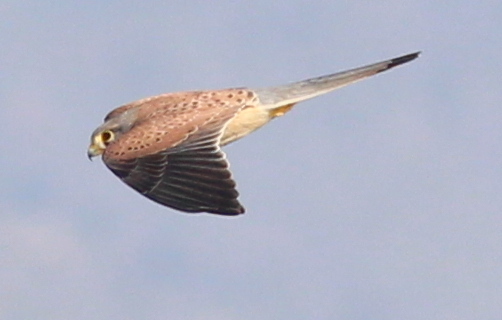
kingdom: Animalia
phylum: Chordata
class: Aves
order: Falconiformes
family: Falconidae
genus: Falco
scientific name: Falco tinnunculus
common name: Common kestrel
